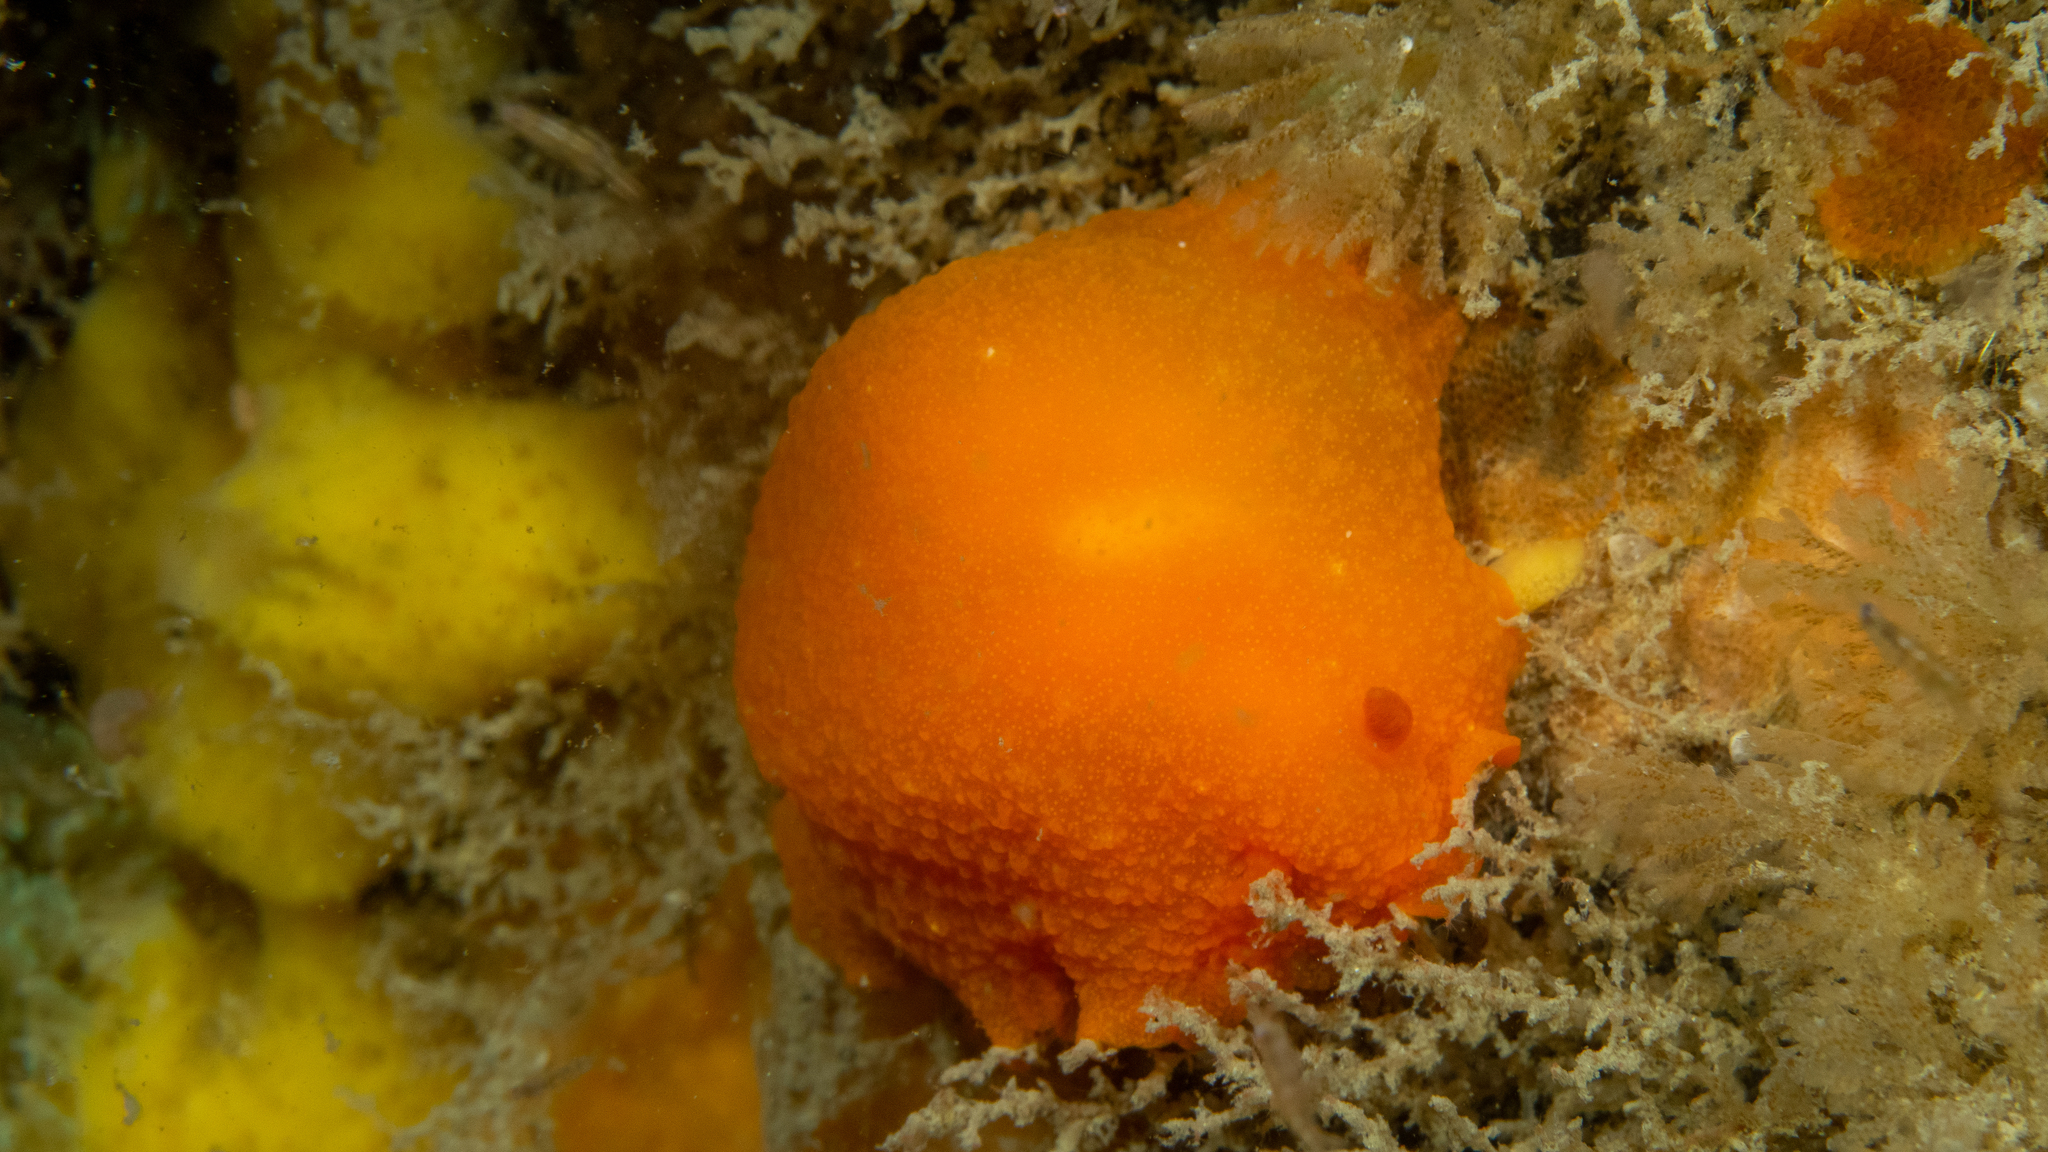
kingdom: Animalia
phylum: Mollusca
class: Gastropoda
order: Nudibranchia
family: Dendrodorididae
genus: Doriopsilla
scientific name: Doriopsilla carneola
